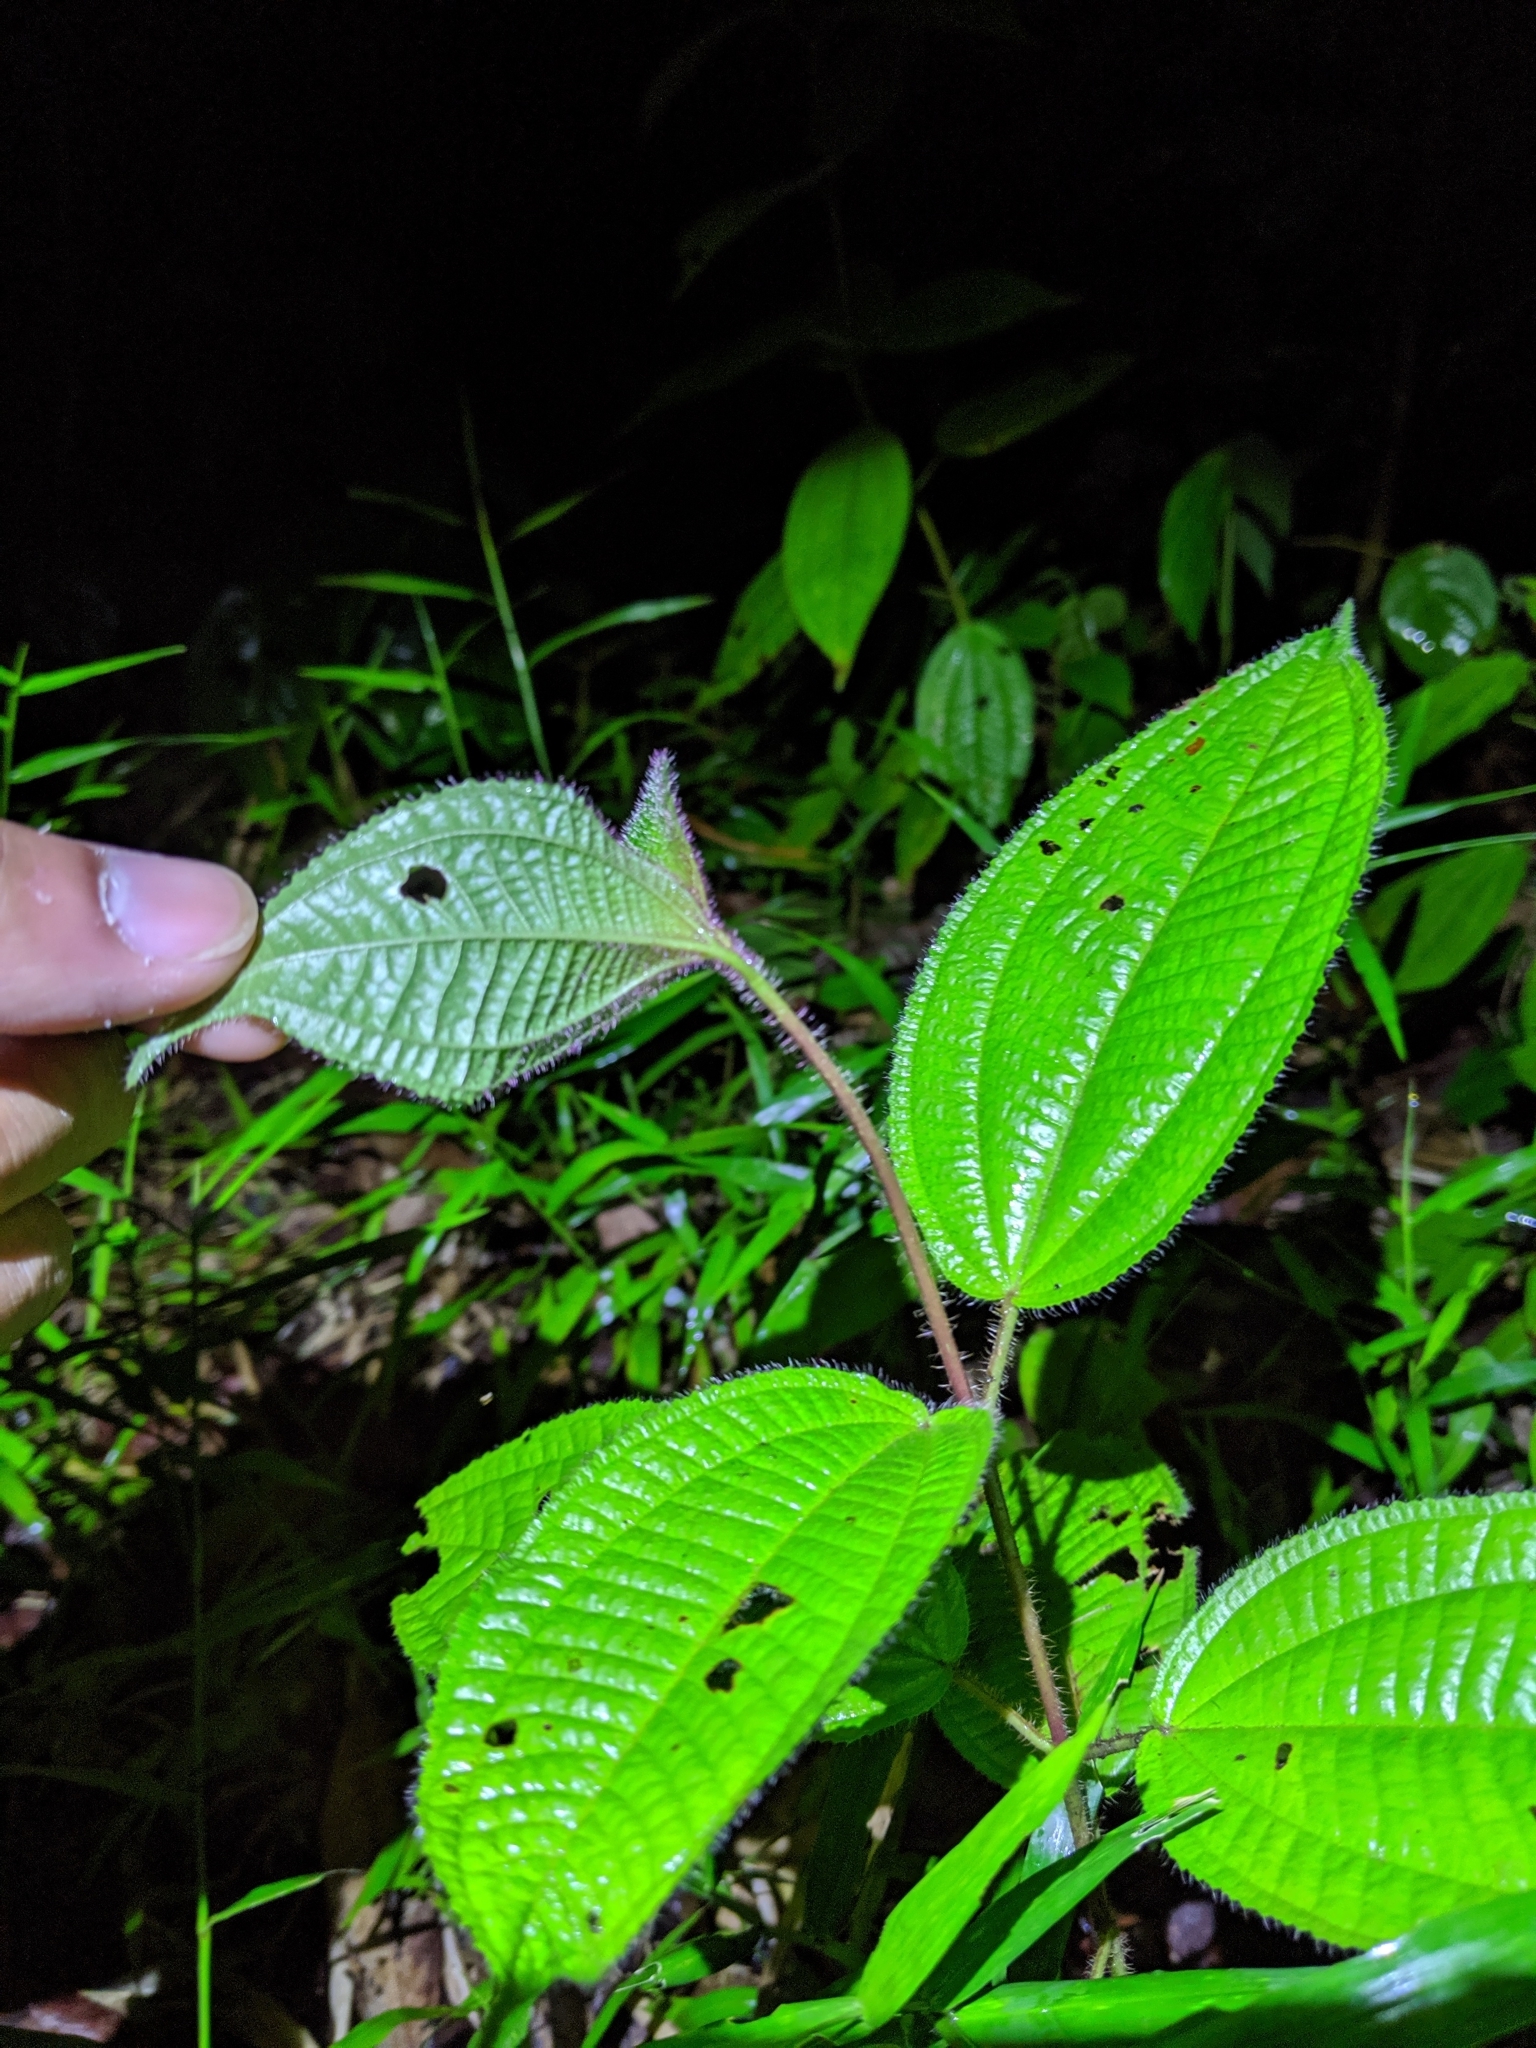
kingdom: Plantae
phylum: Tracheophyta
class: Magnoliopsida
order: Myrtales
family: Melastomataceae
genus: Miconia
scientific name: Miconia crenata
